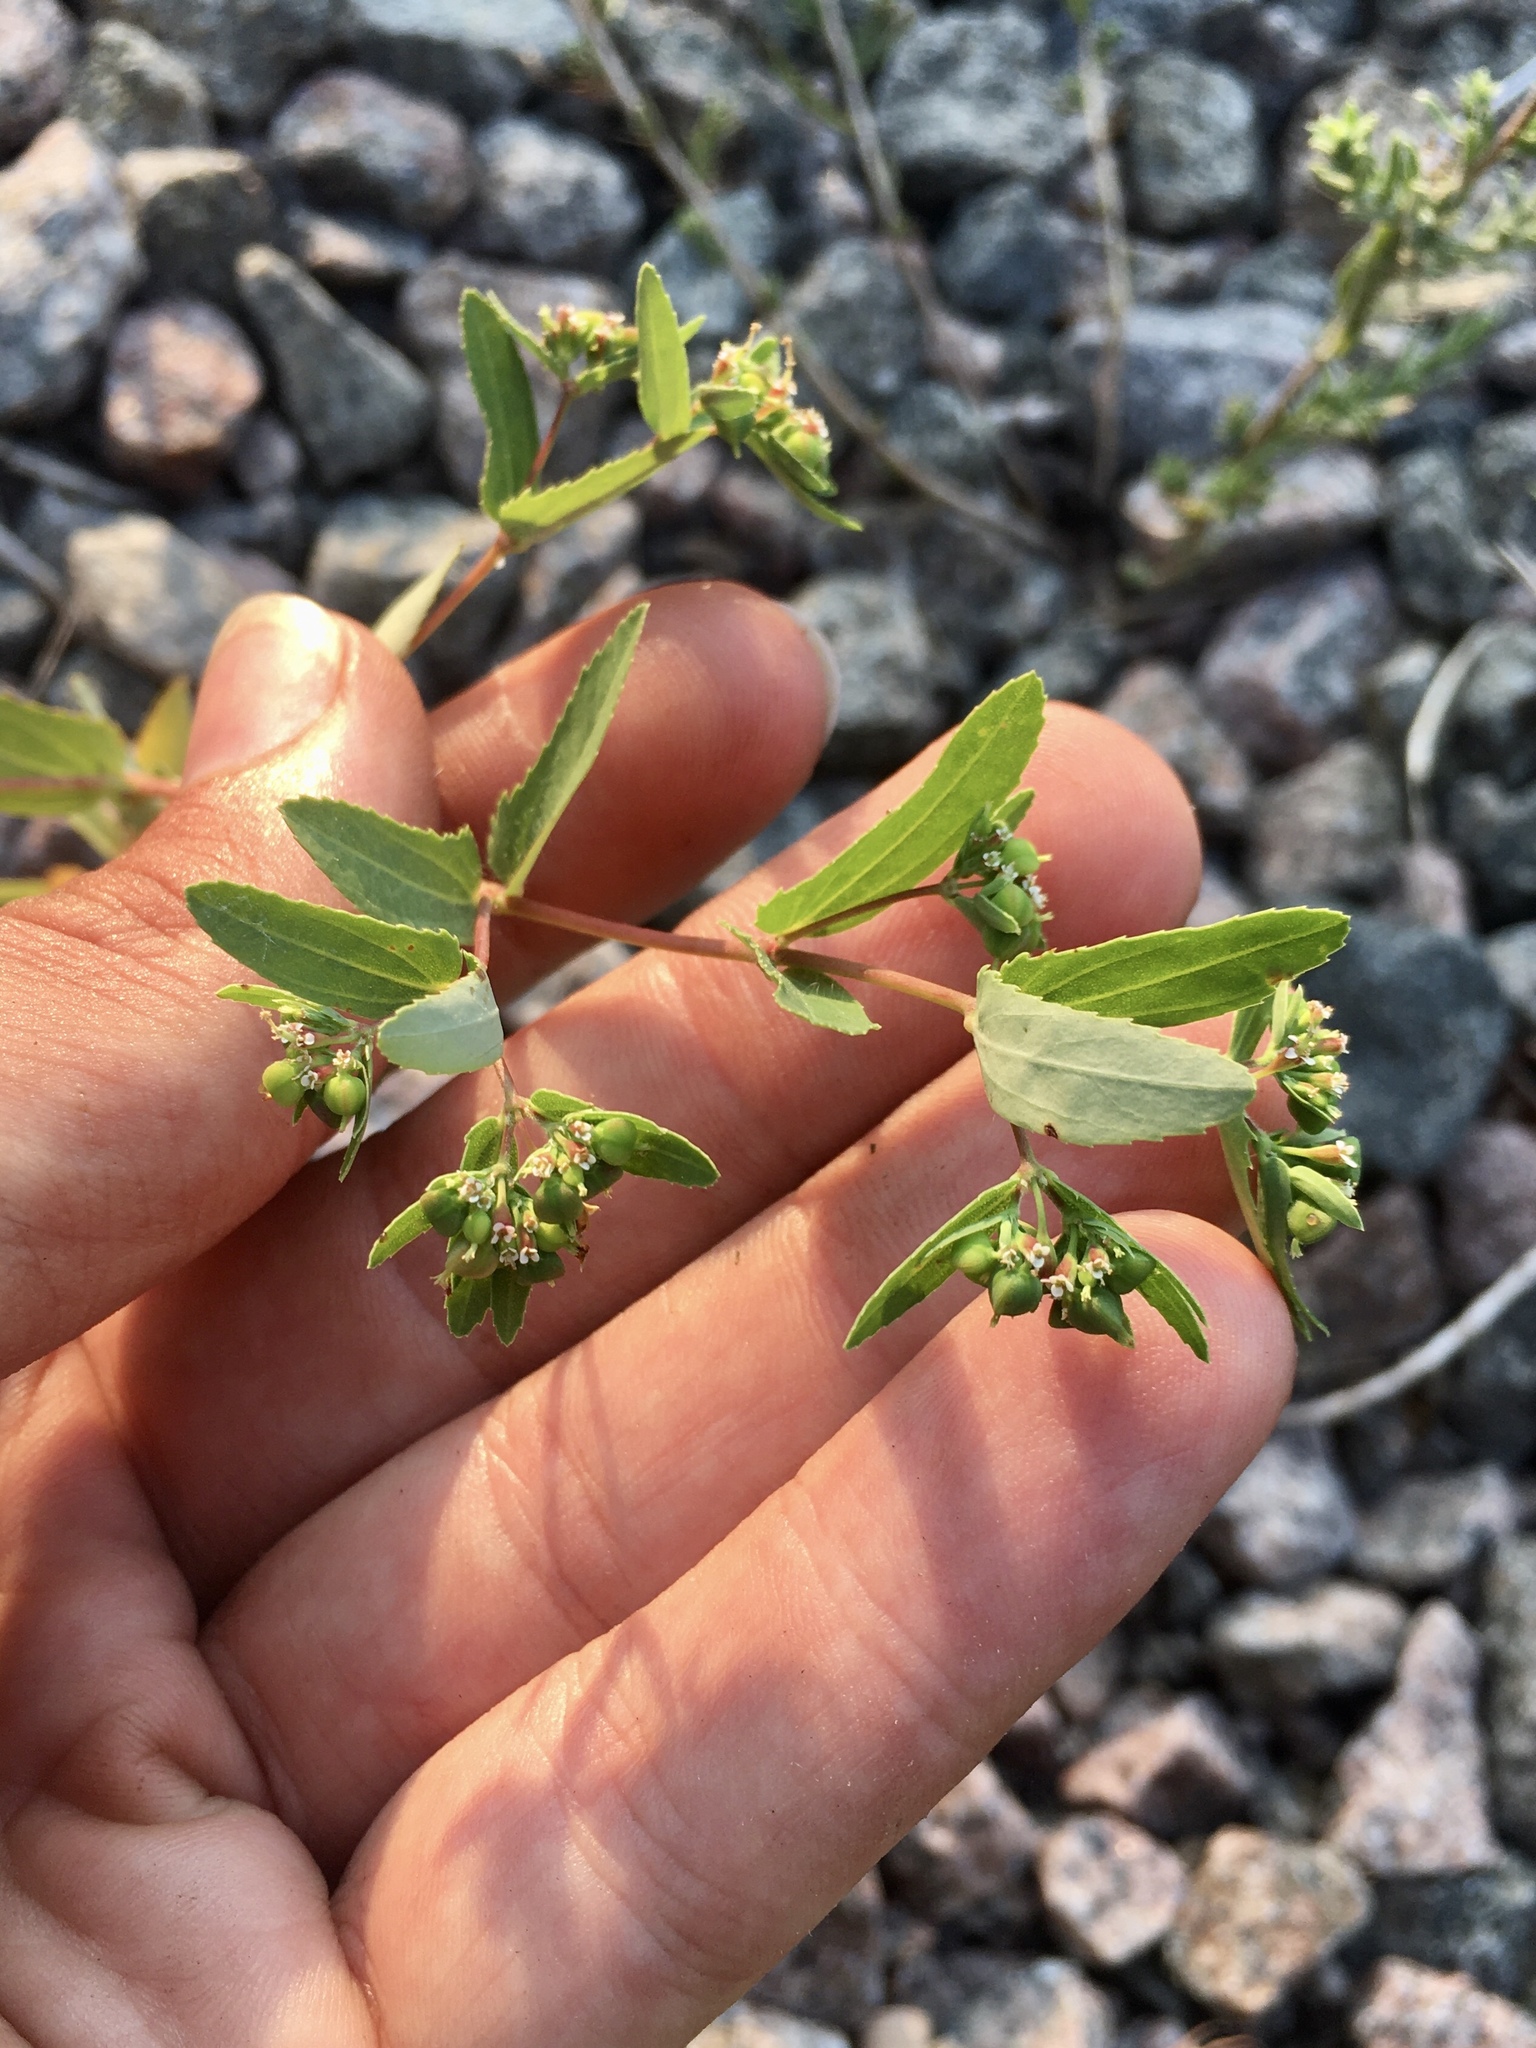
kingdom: Plantae
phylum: Tracheophyta
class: Magnoliopsida
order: Malpighiales
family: Euphorbiaceae
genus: Euphorbia
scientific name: Euphorbia nutans
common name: Eyebane
